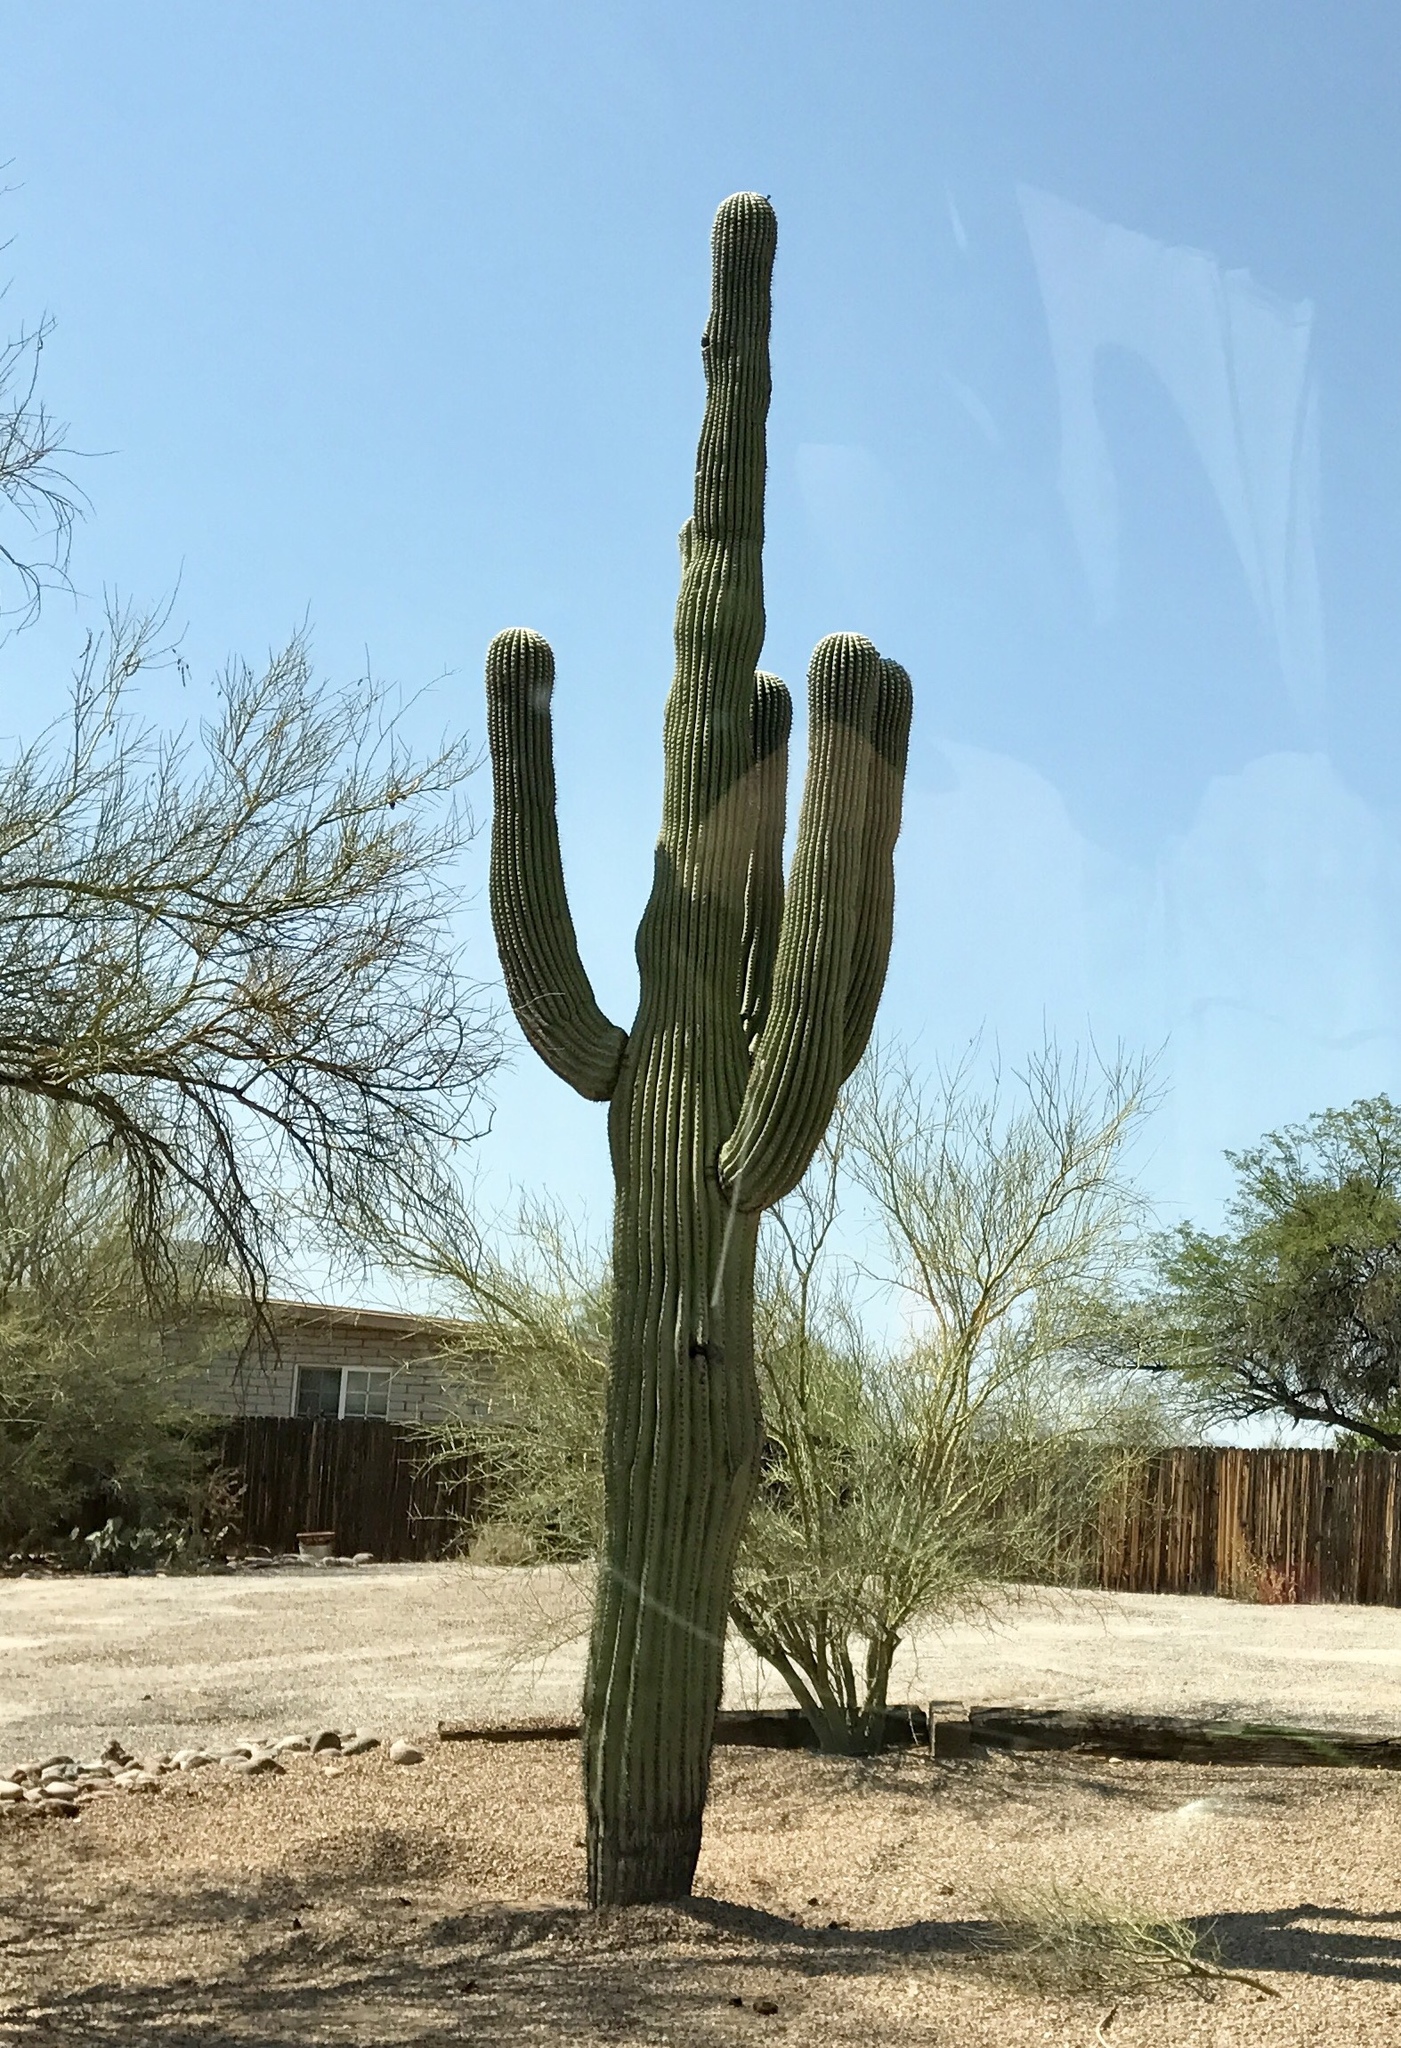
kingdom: Plantae
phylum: Tracheophyta
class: Magnoliopsida
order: Caryophyllales
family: Cactaceae
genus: Carnegiea
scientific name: Carnegiea gigantea
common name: Saguaro
